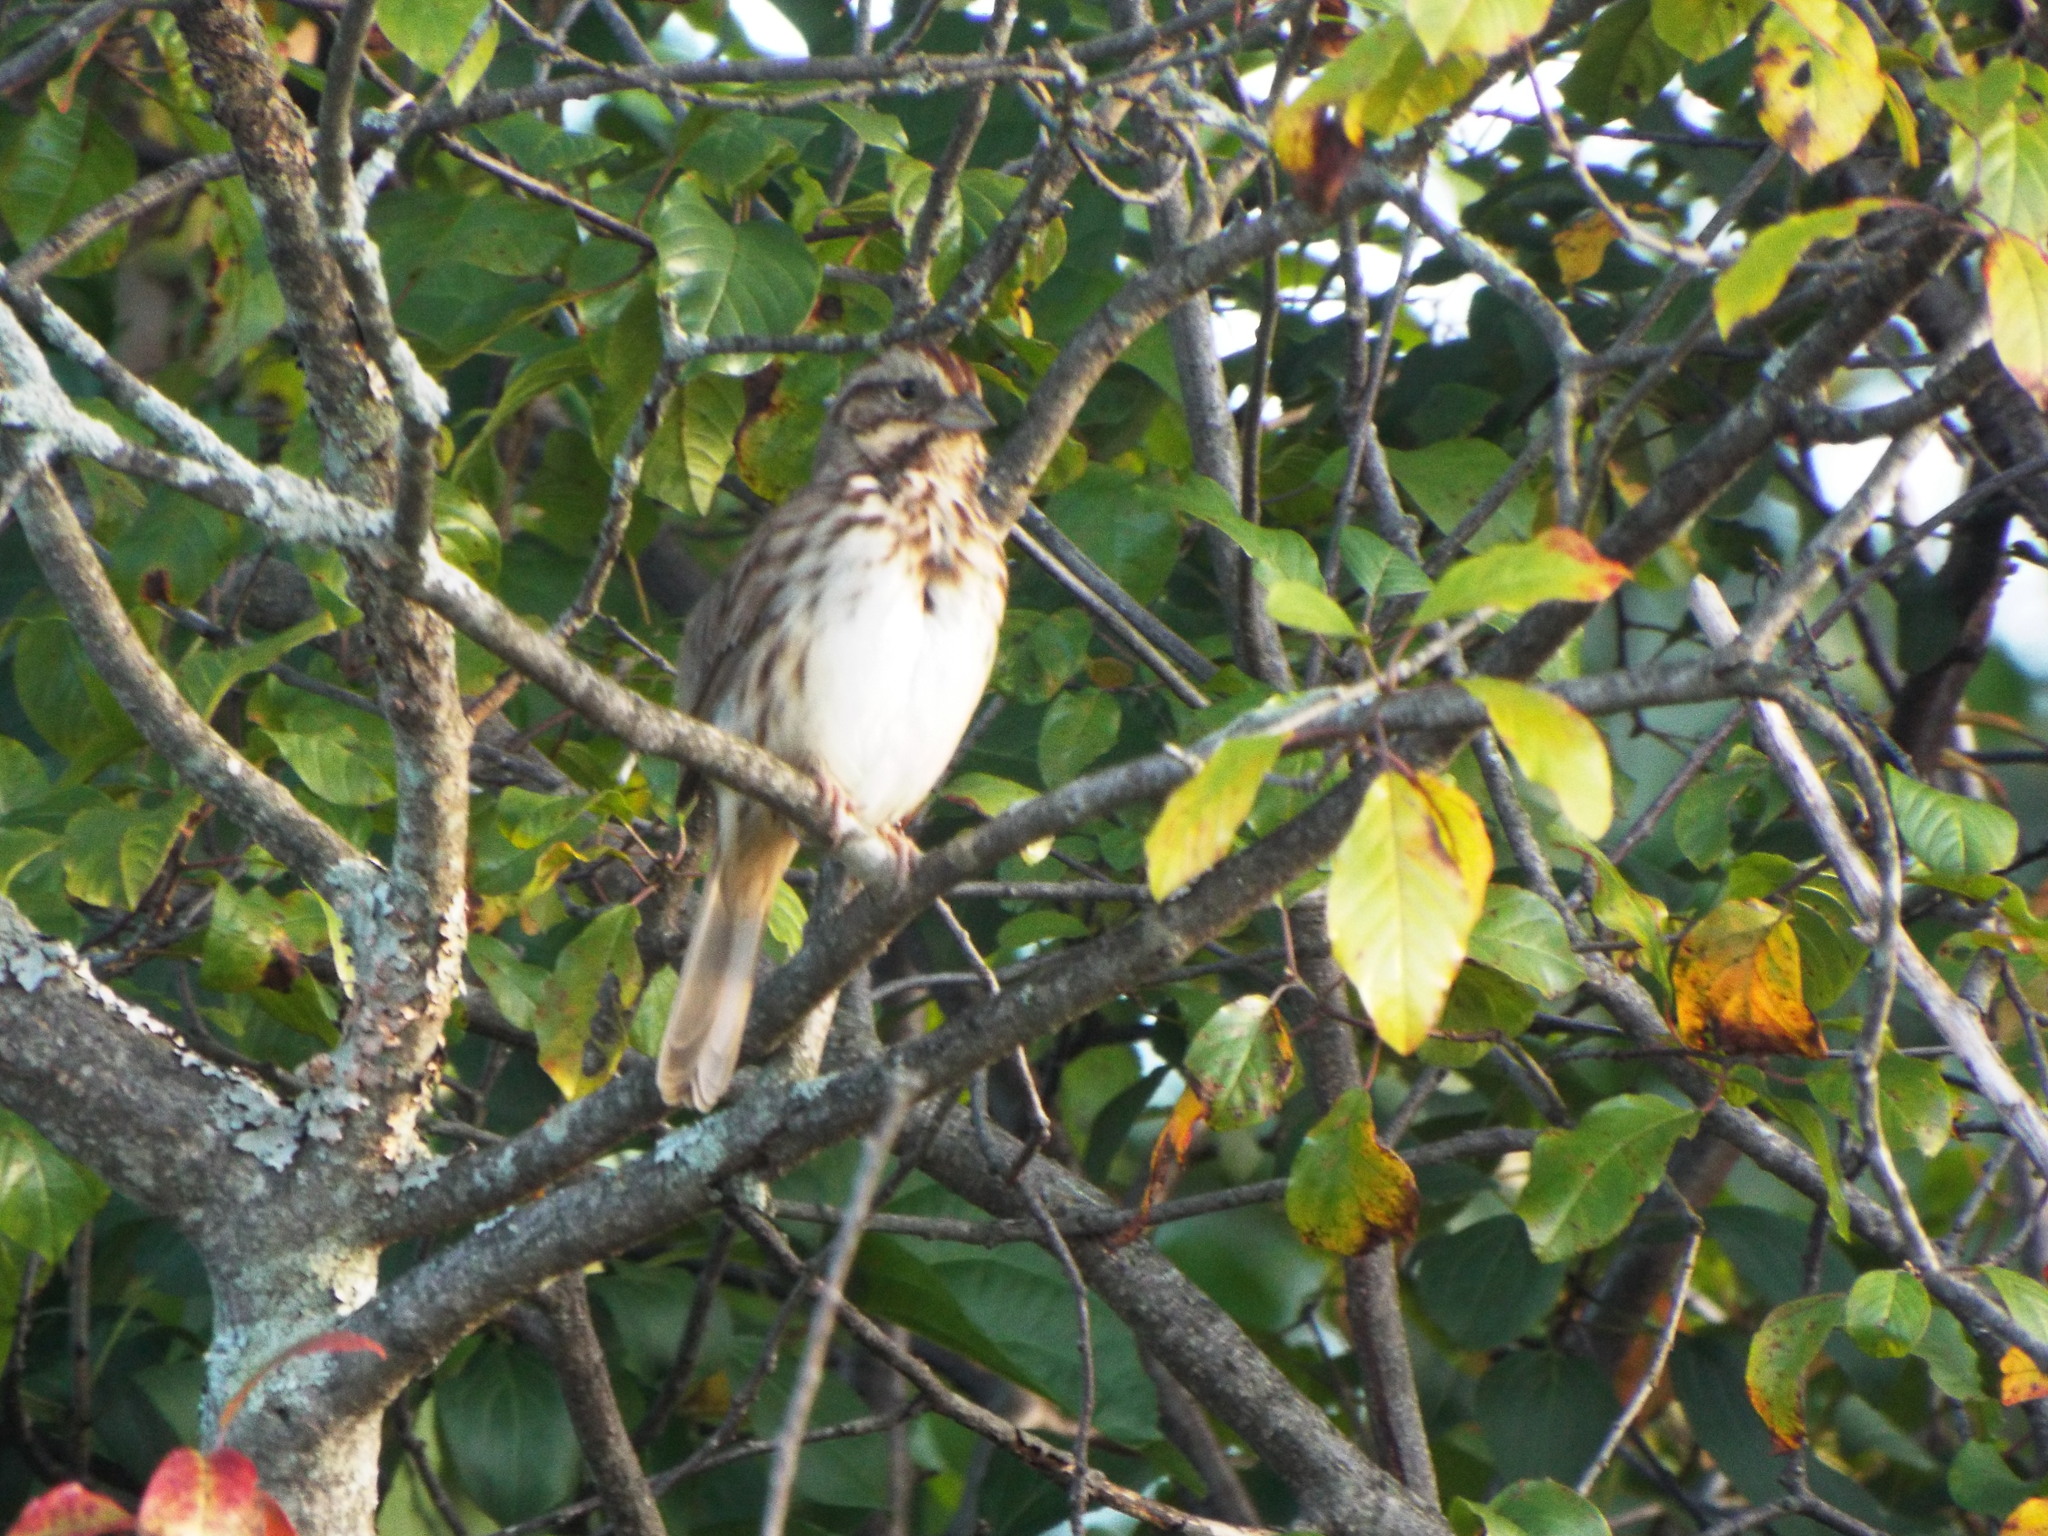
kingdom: Animalia
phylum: Chordata
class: Aves
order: Passeriformes
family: Passerellidae
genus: Melospiza
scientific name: Melospiza melodia
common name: Song sparrow
